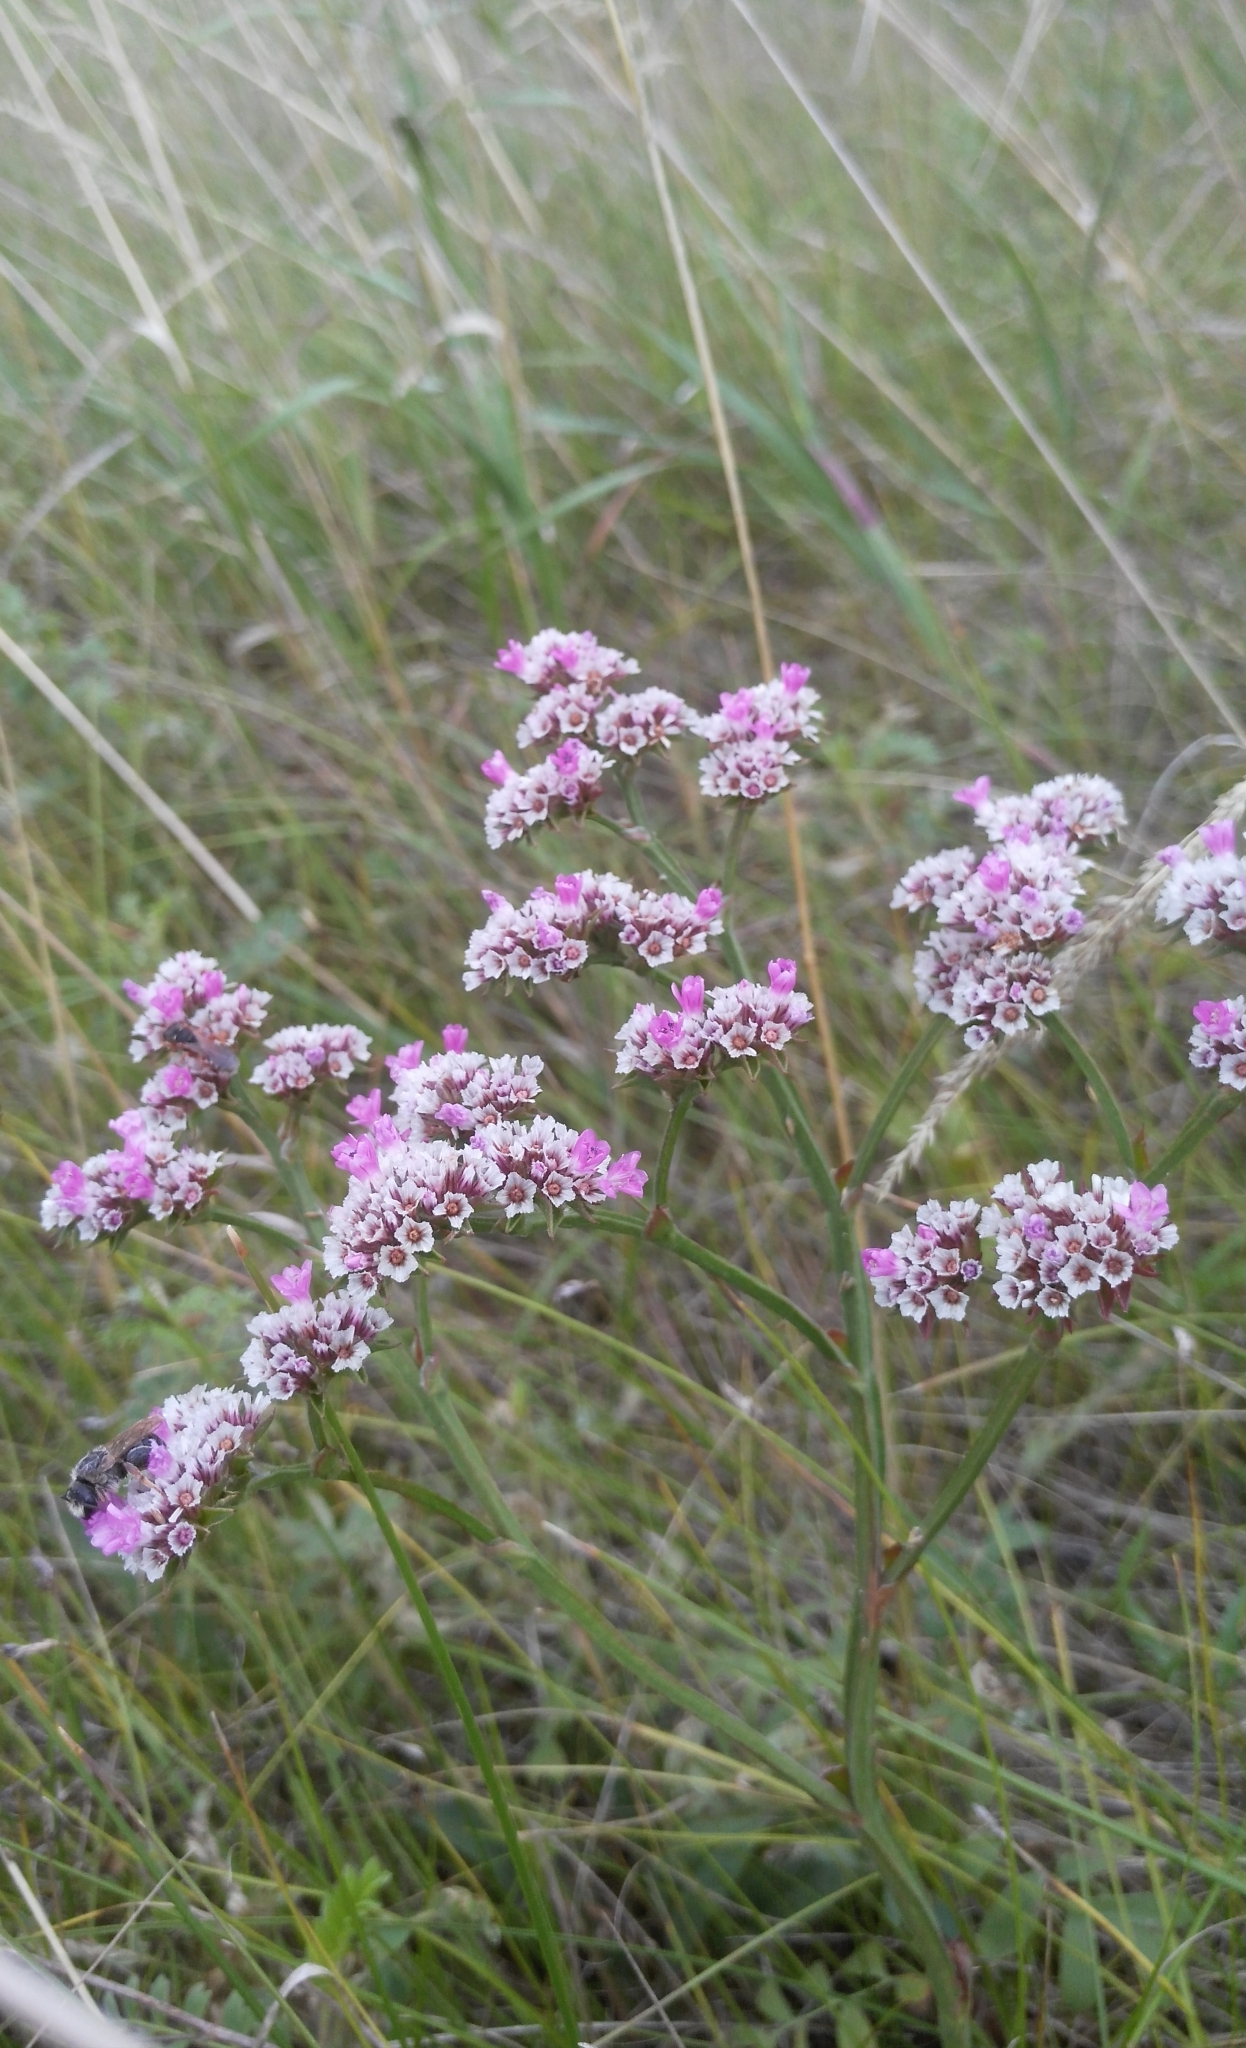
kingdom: Plantae
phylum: Tracheophyta
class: Magnoliopsida
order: Caryophyllales
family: Plumbaginaceae
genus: Goniolimon
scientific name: Goniolimon speciosum
